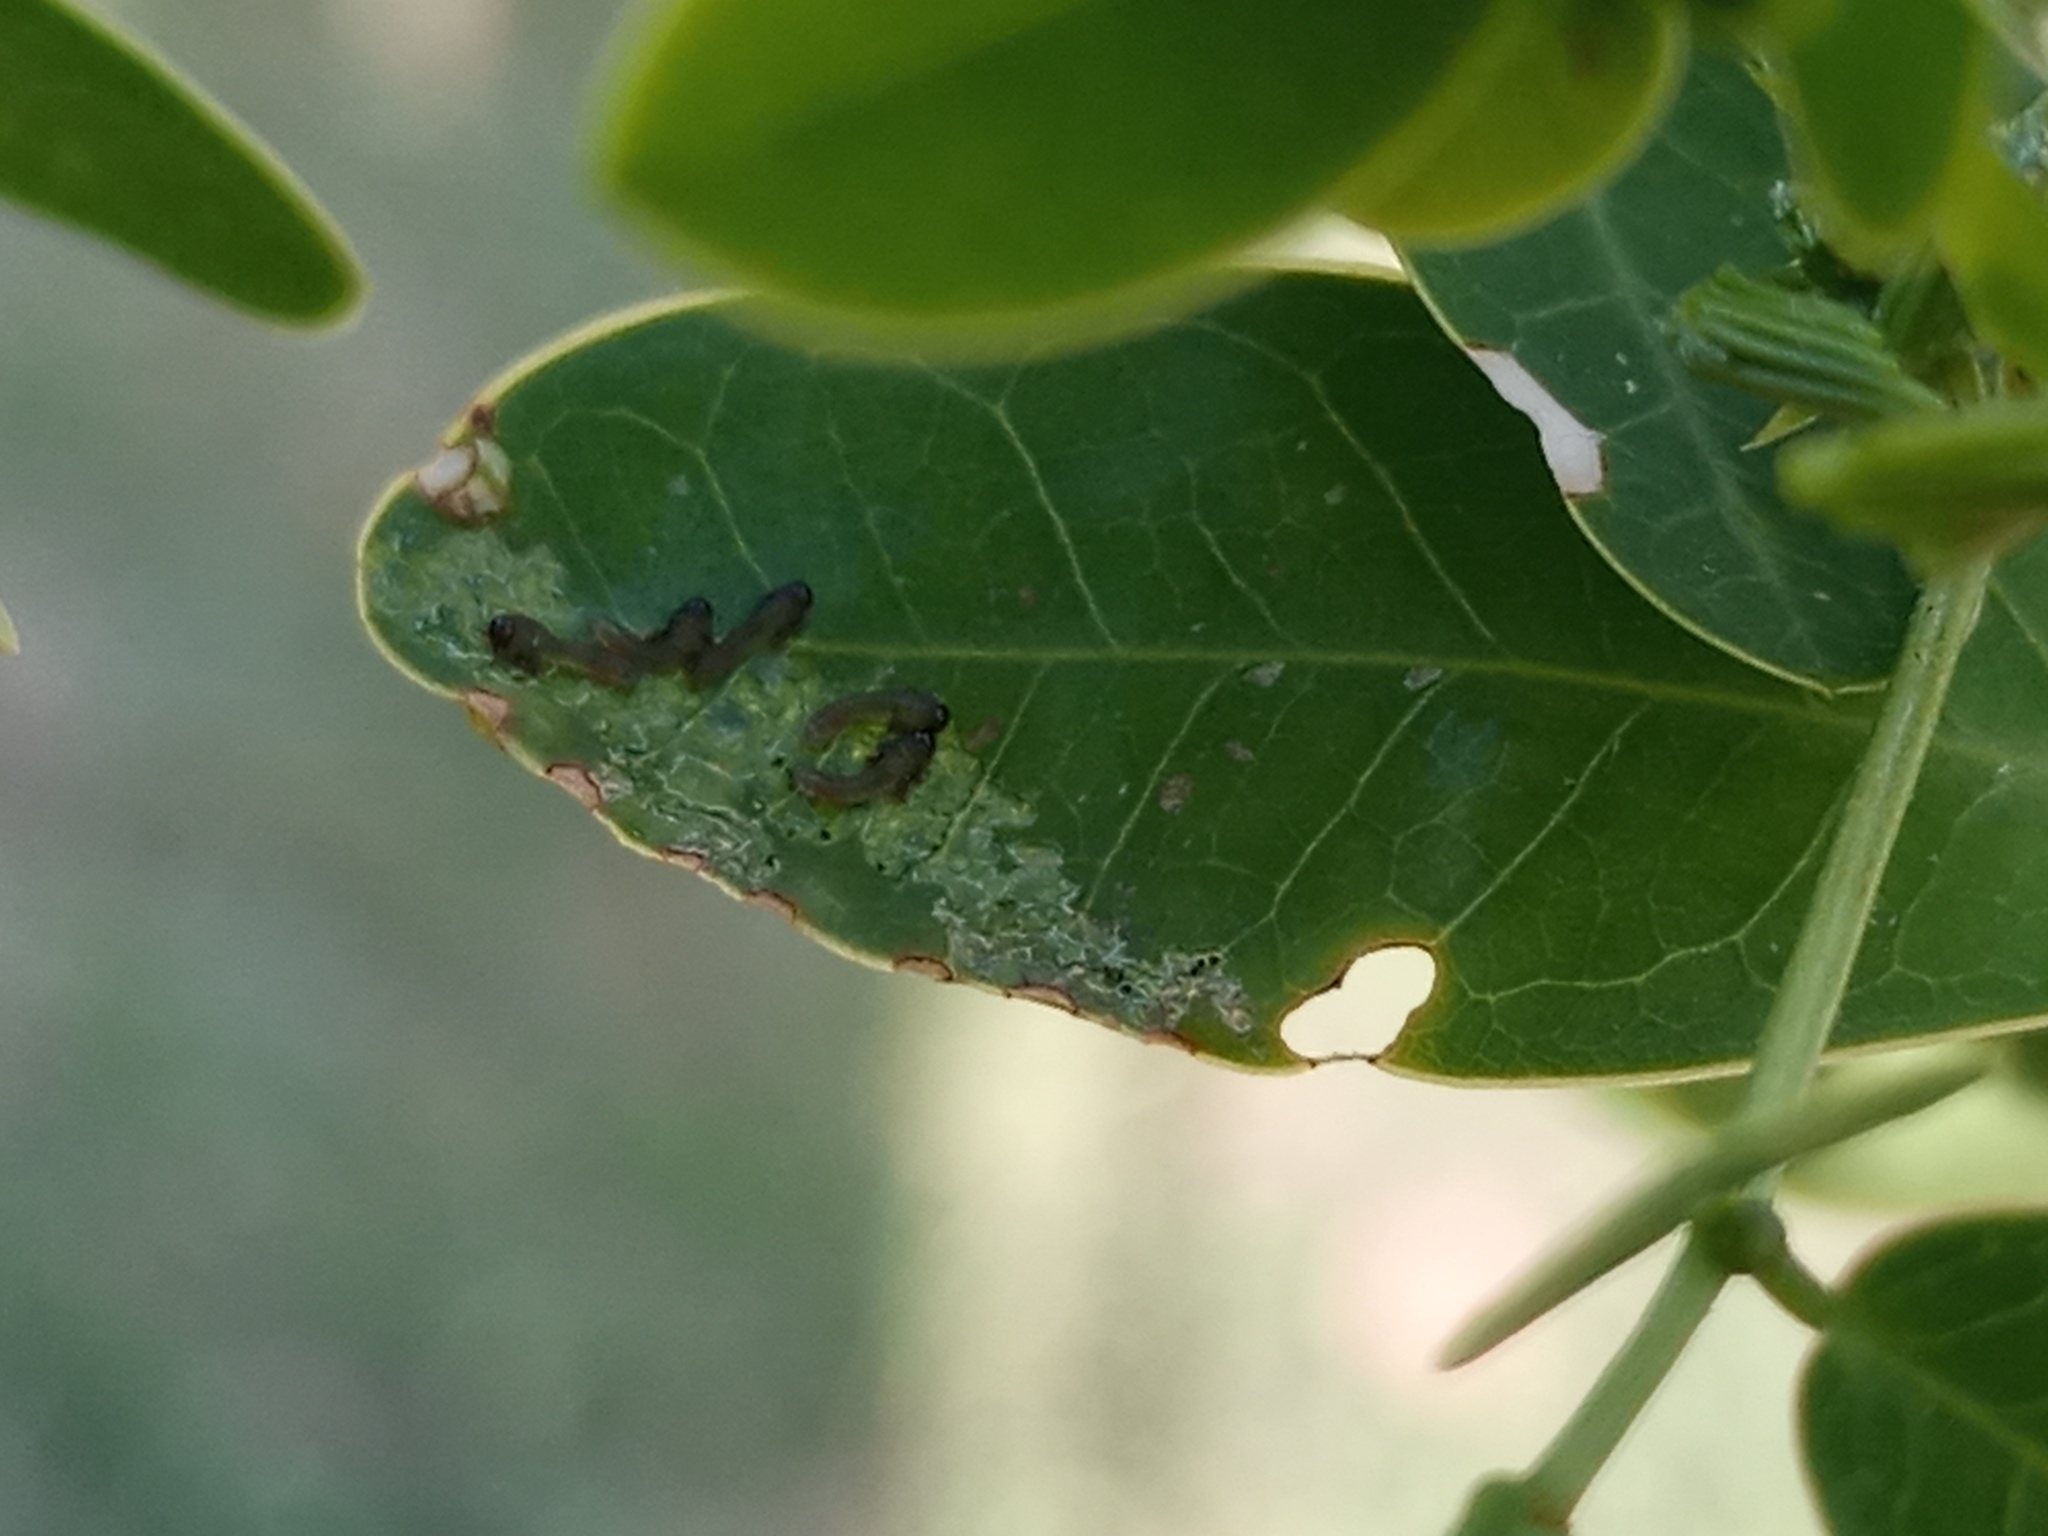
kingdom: Animalia
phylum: Arthropoda
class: Insecta
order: Hymenoptera
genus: Adurgoa
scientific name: Adurgoa
